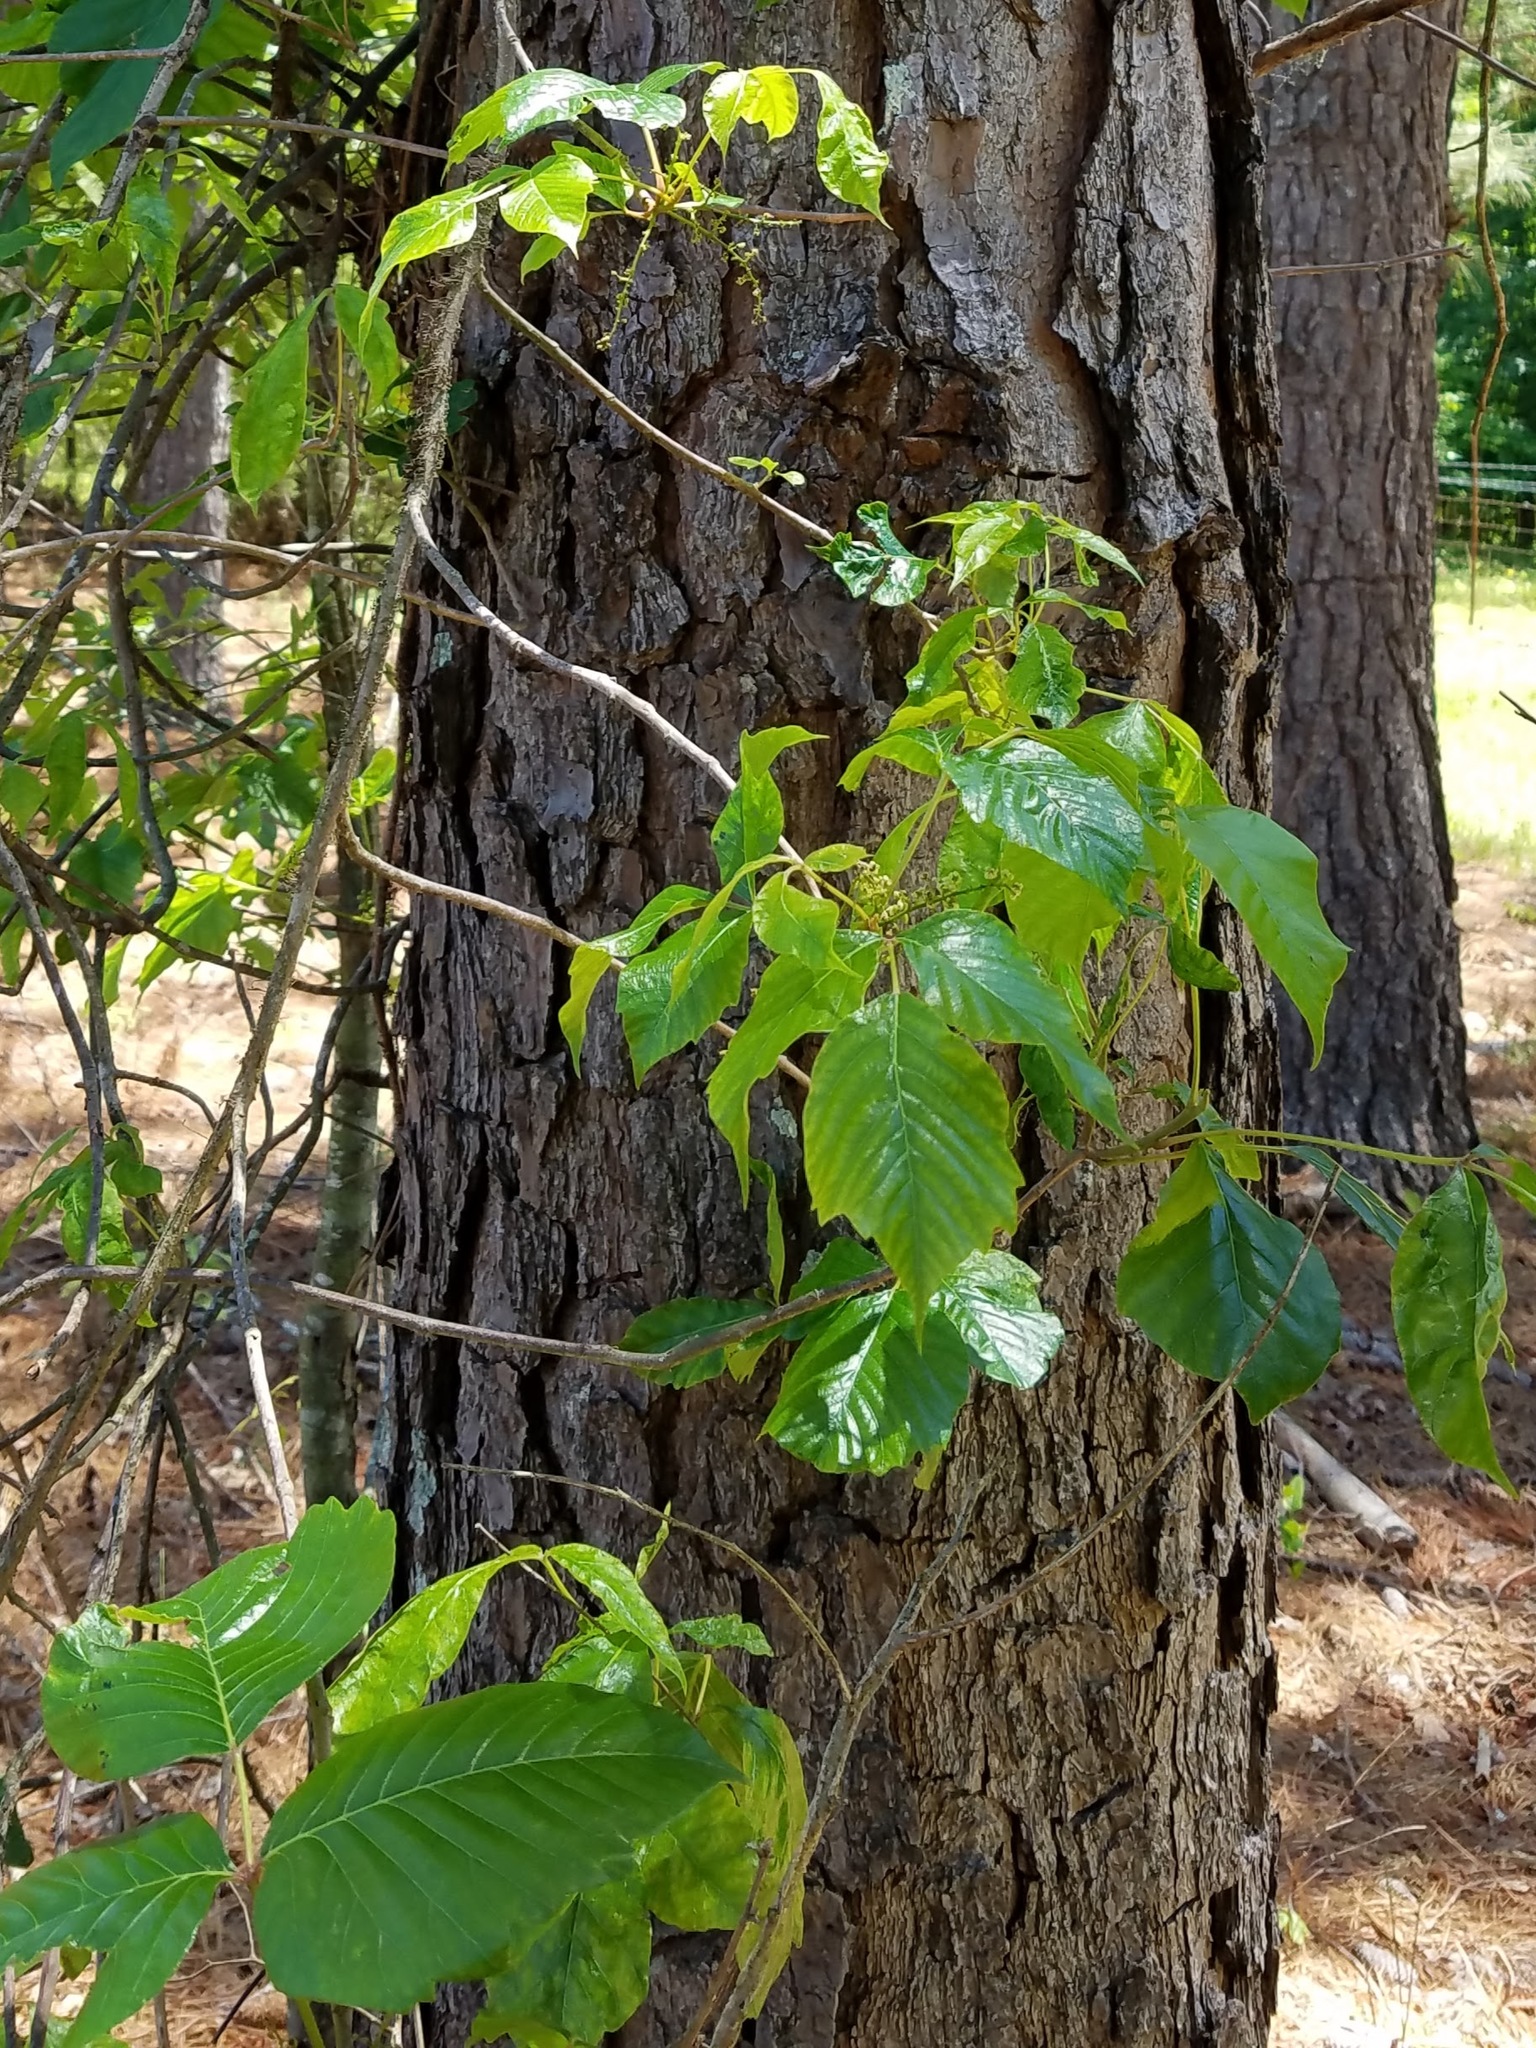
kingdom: Plantae
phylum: Tracheophyta
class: Magnoliopsida
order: Sapindales
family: Anacardiaceae
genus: Toxicodendron
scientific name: Toxicodendron radicans
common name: Poison ivy
